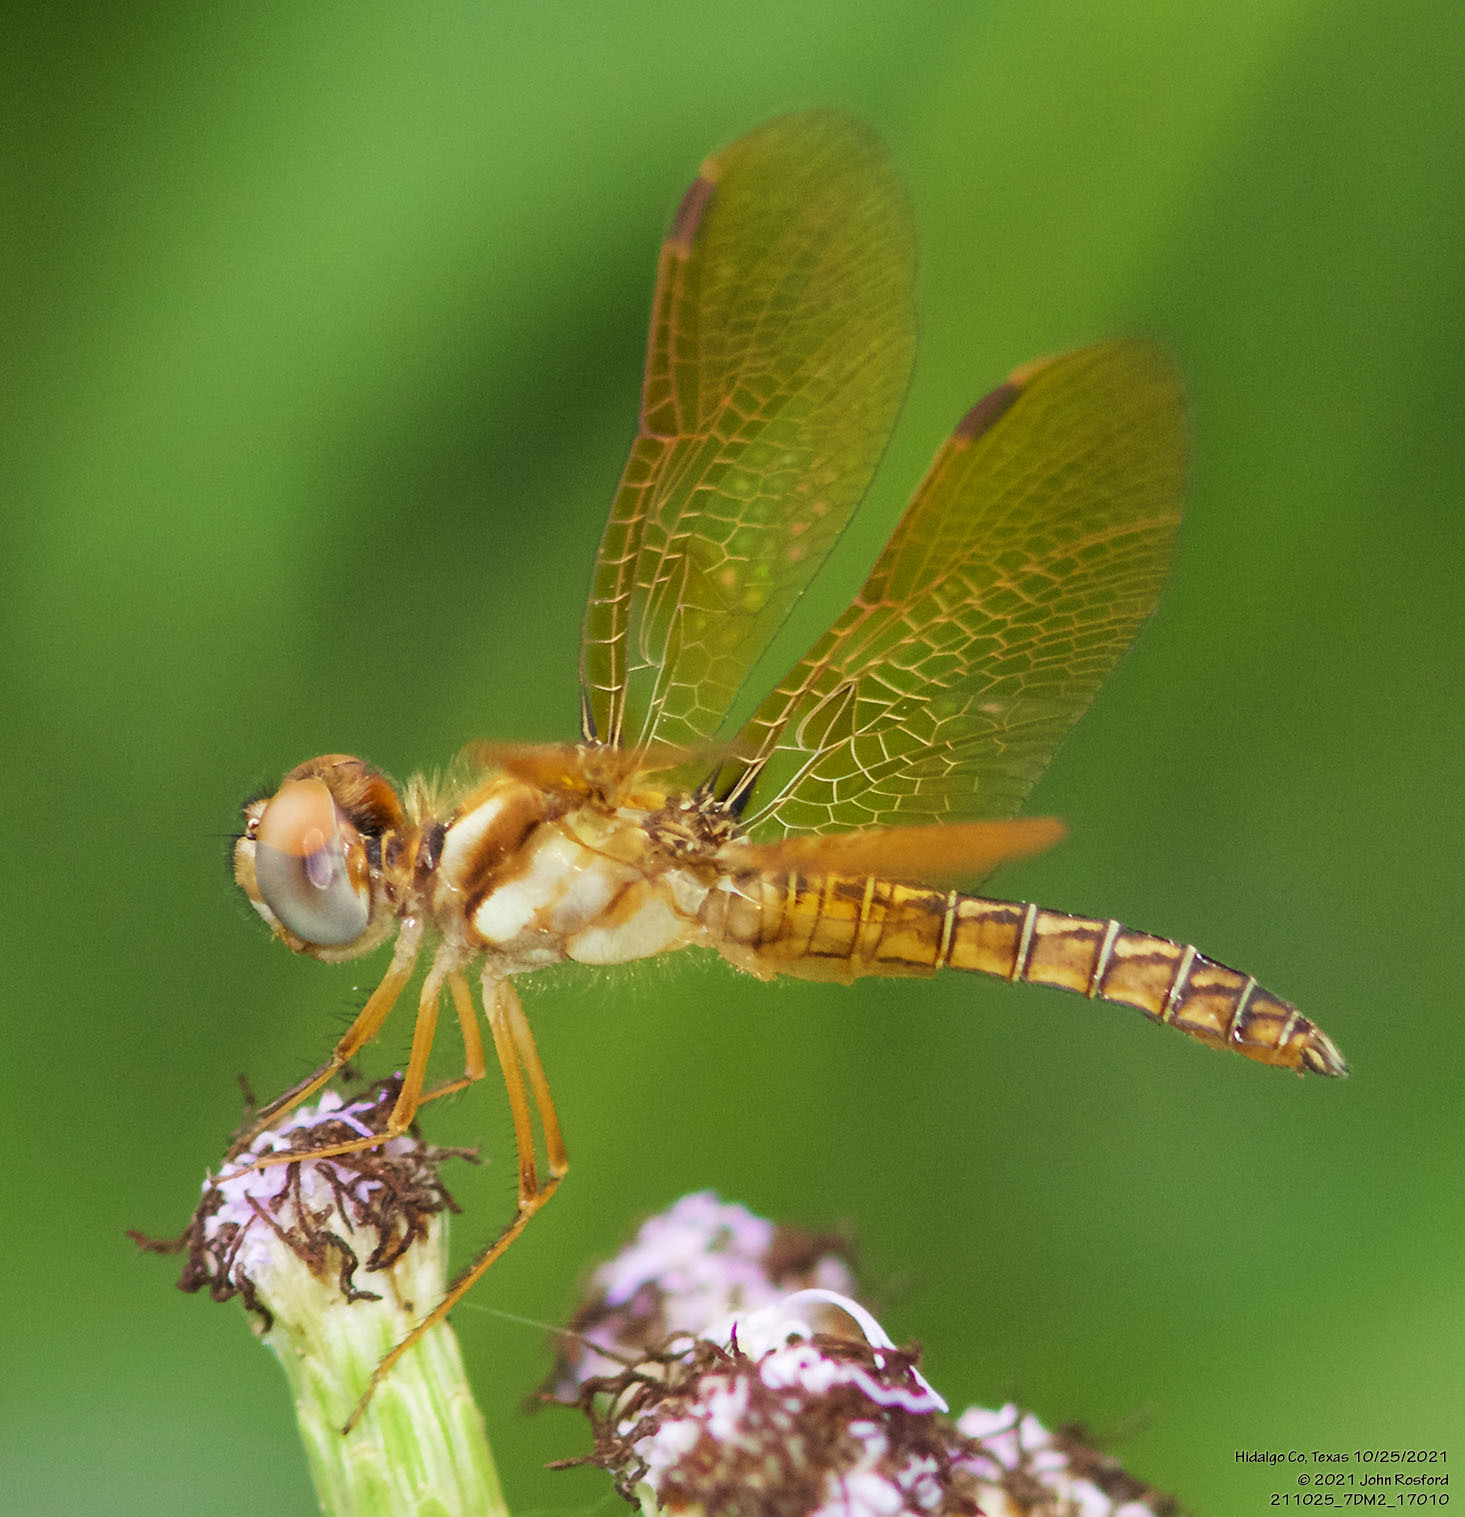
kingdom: Animalia
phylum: Arthropoda
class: Insecta
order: Odonata
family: Libellulidae
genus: Perithemis
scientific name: Perithemis tenera
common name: Eastern amberwing
